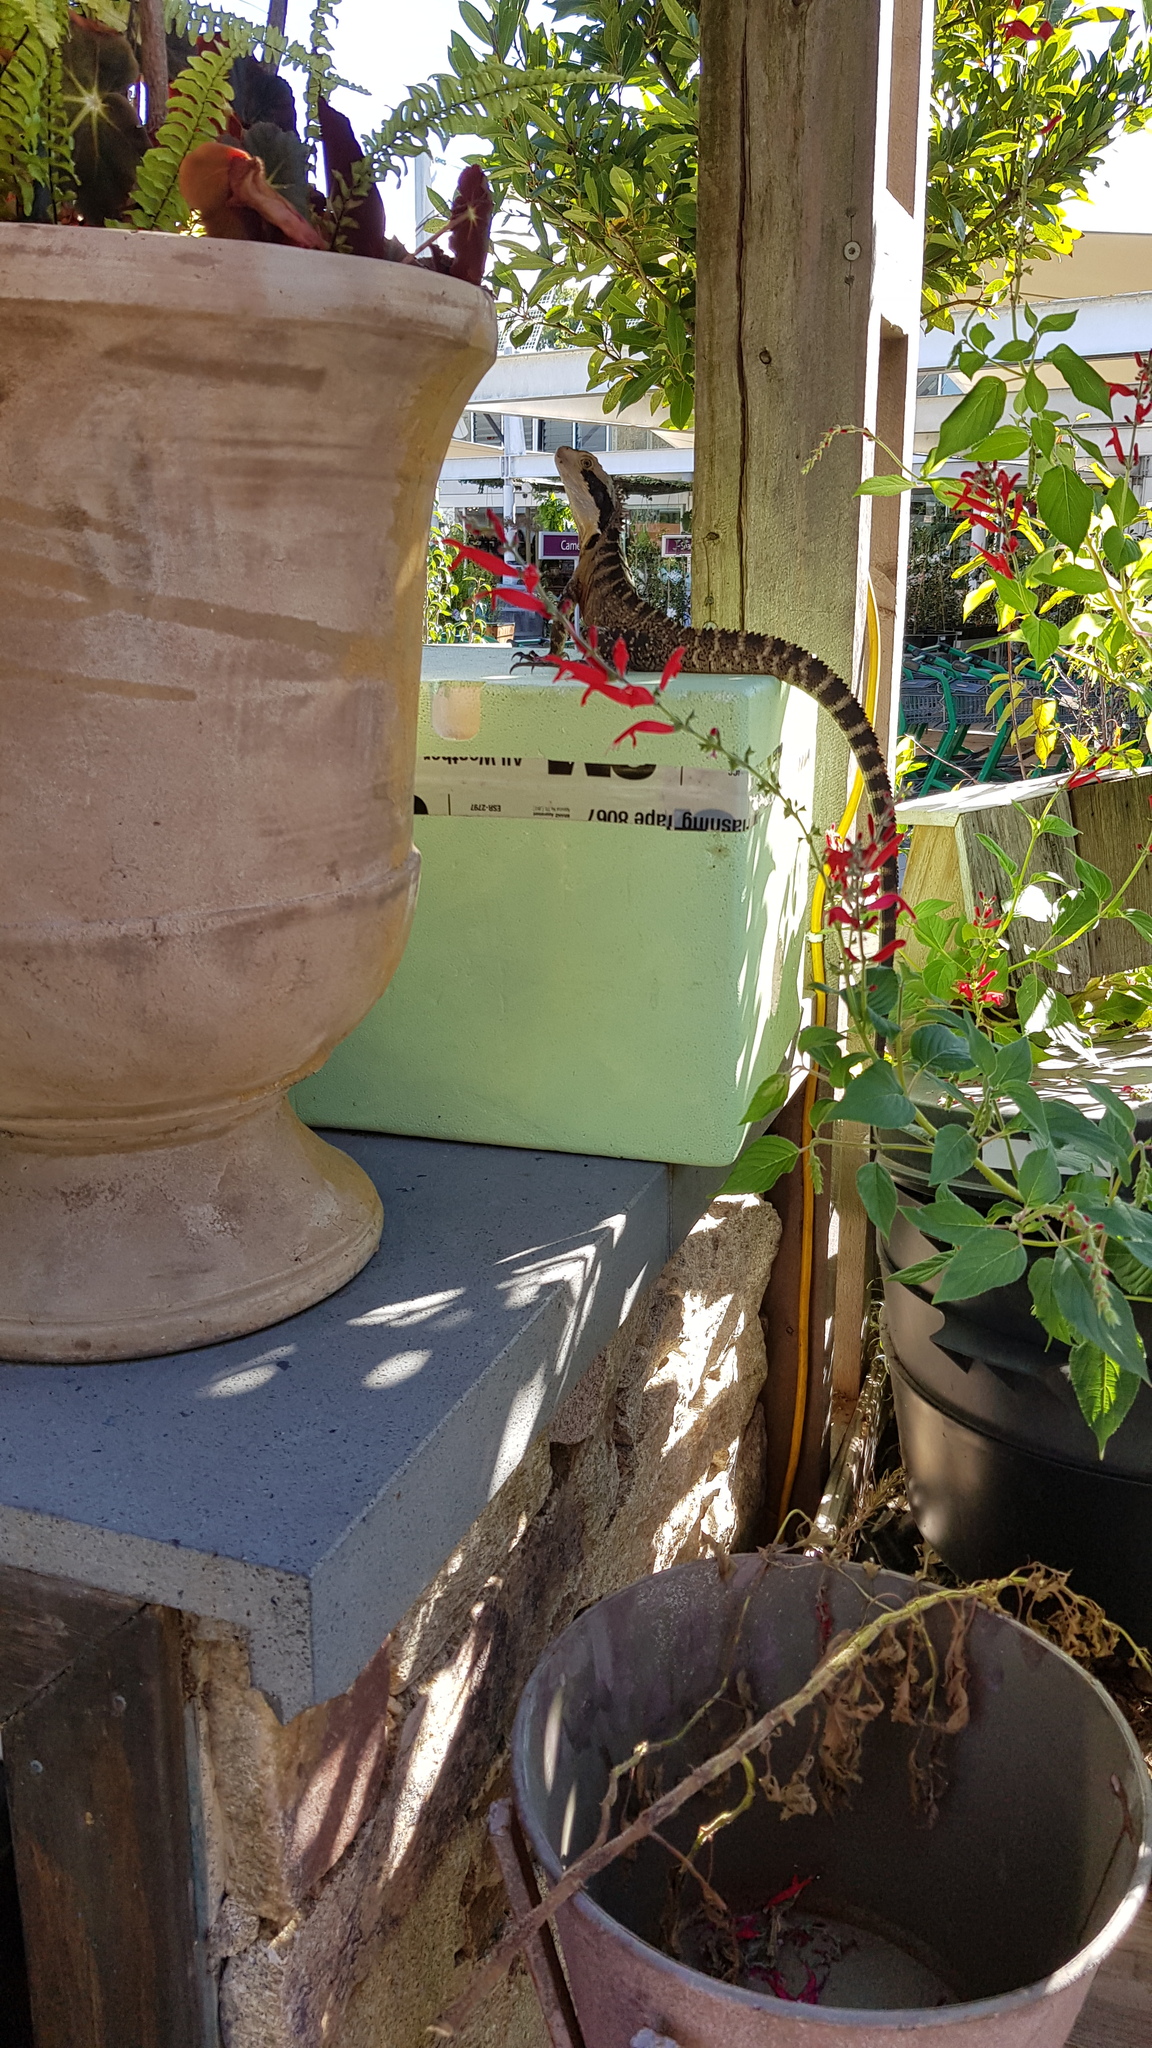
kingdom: Animalia
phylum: Chordata
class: Squamata
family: Agamidae
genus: Intellagama
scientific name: Intellagama lesueurii
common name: Eastern water dragon
